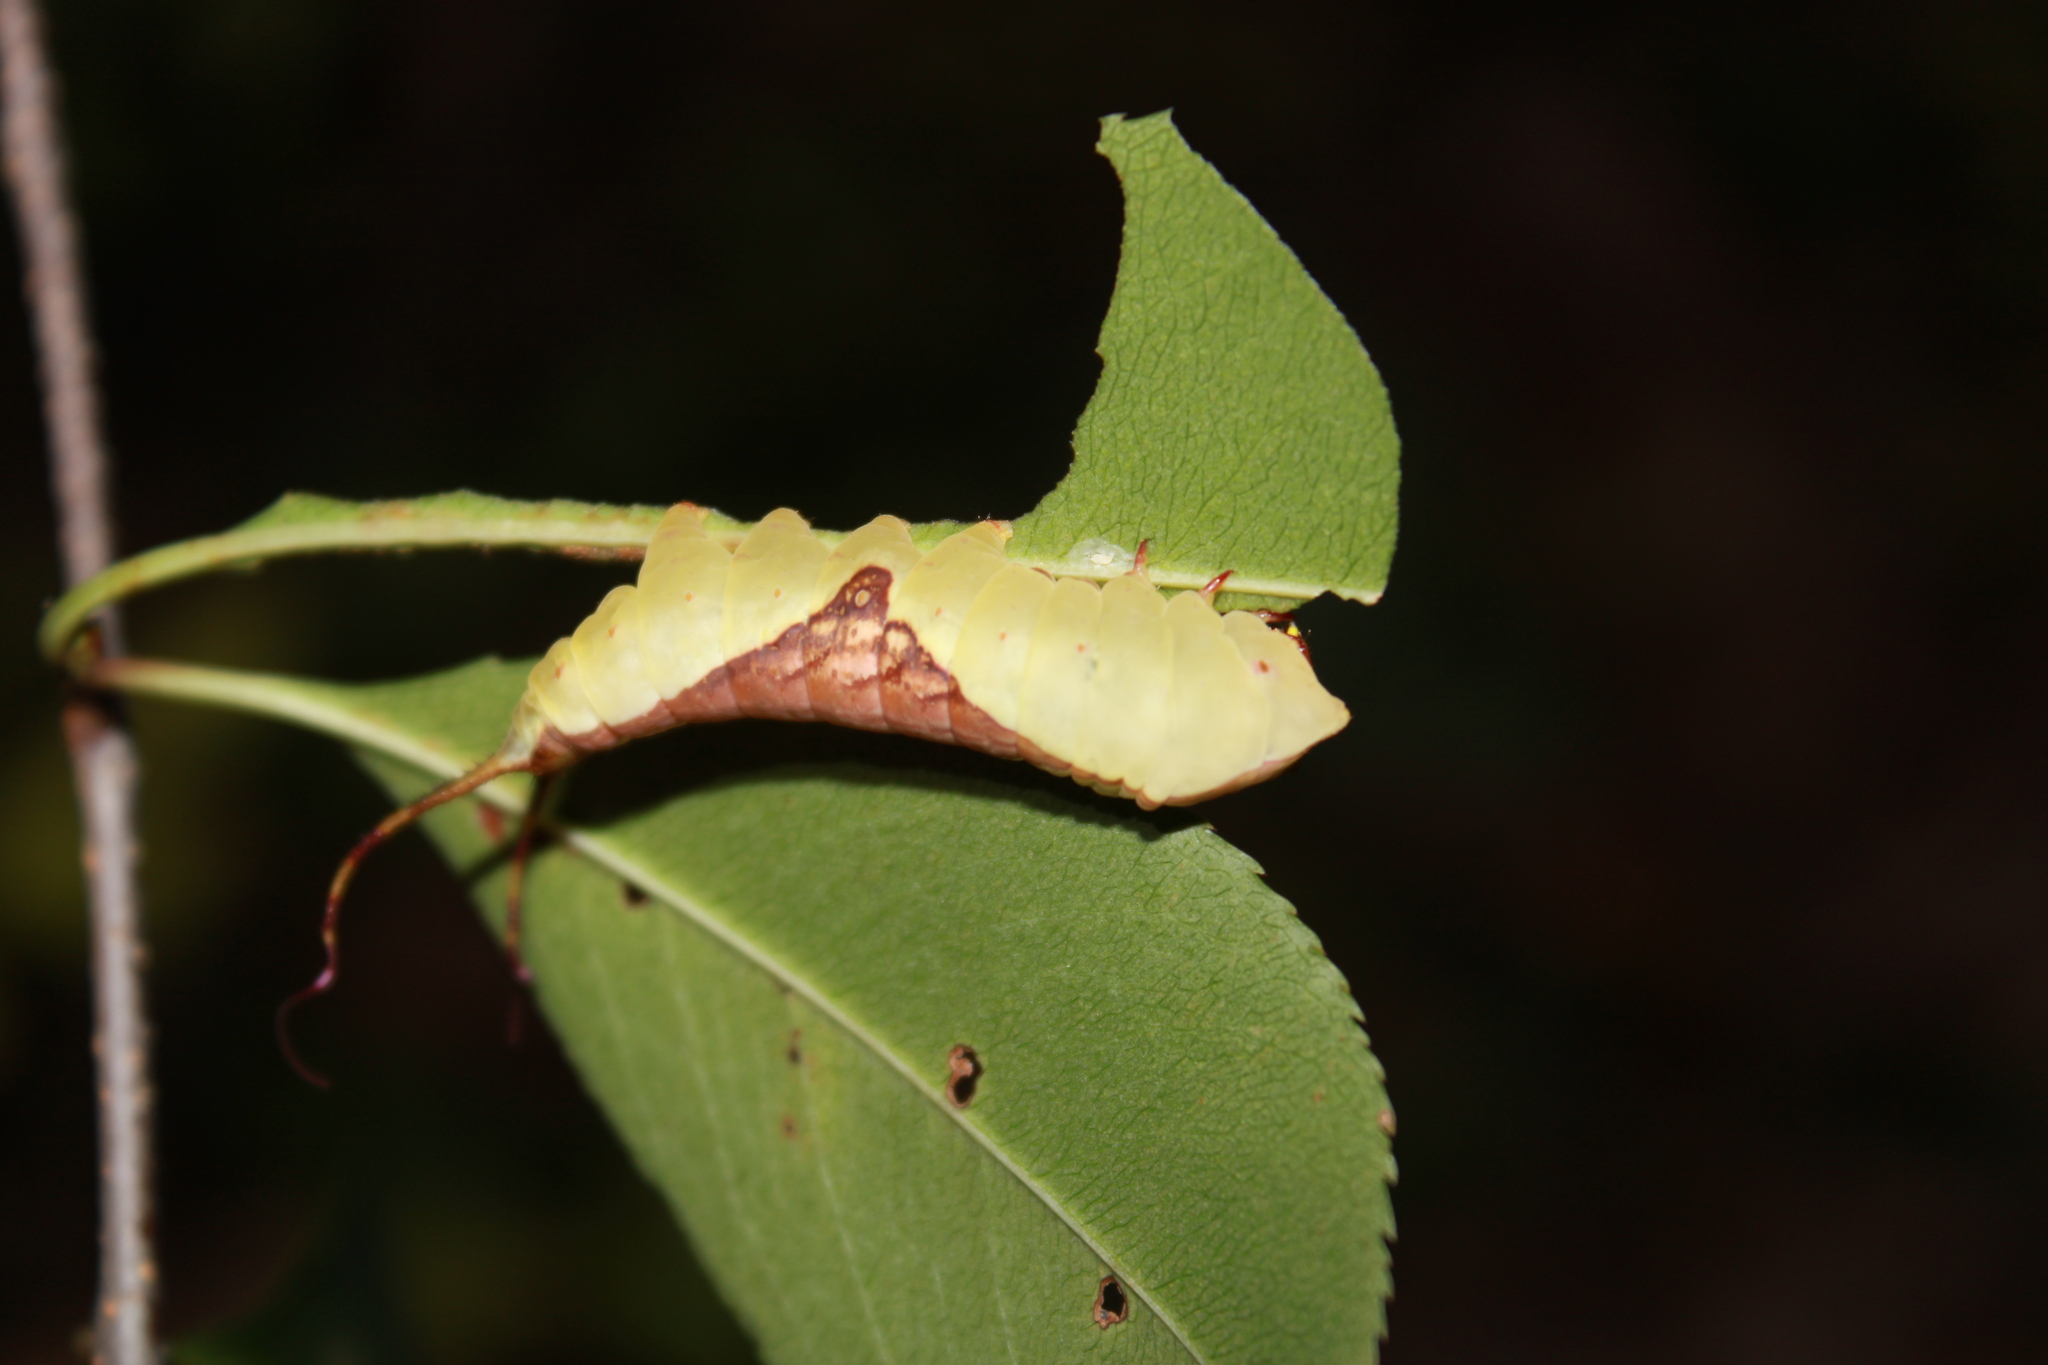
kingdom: Animalia
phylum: Arthropoda
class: Insecta
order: Lepidoptera
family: Notodontidae
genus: Furcula
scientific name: Furcula borealis
